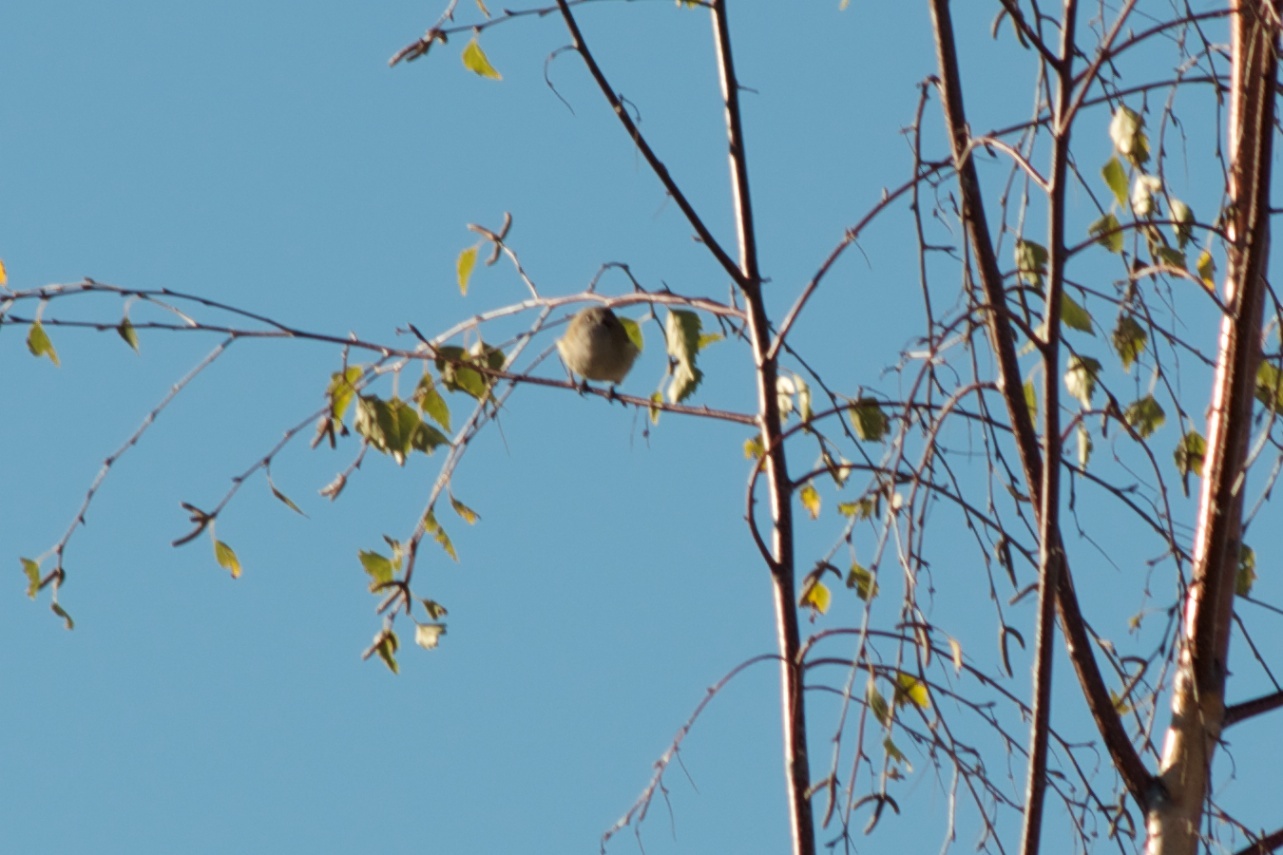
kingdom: Animalia
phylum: Chordata
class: Aves
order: Passeriformes
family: Acanthizidae
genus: Gerygone
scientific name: Gerygone igata
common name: Grey gerygone
